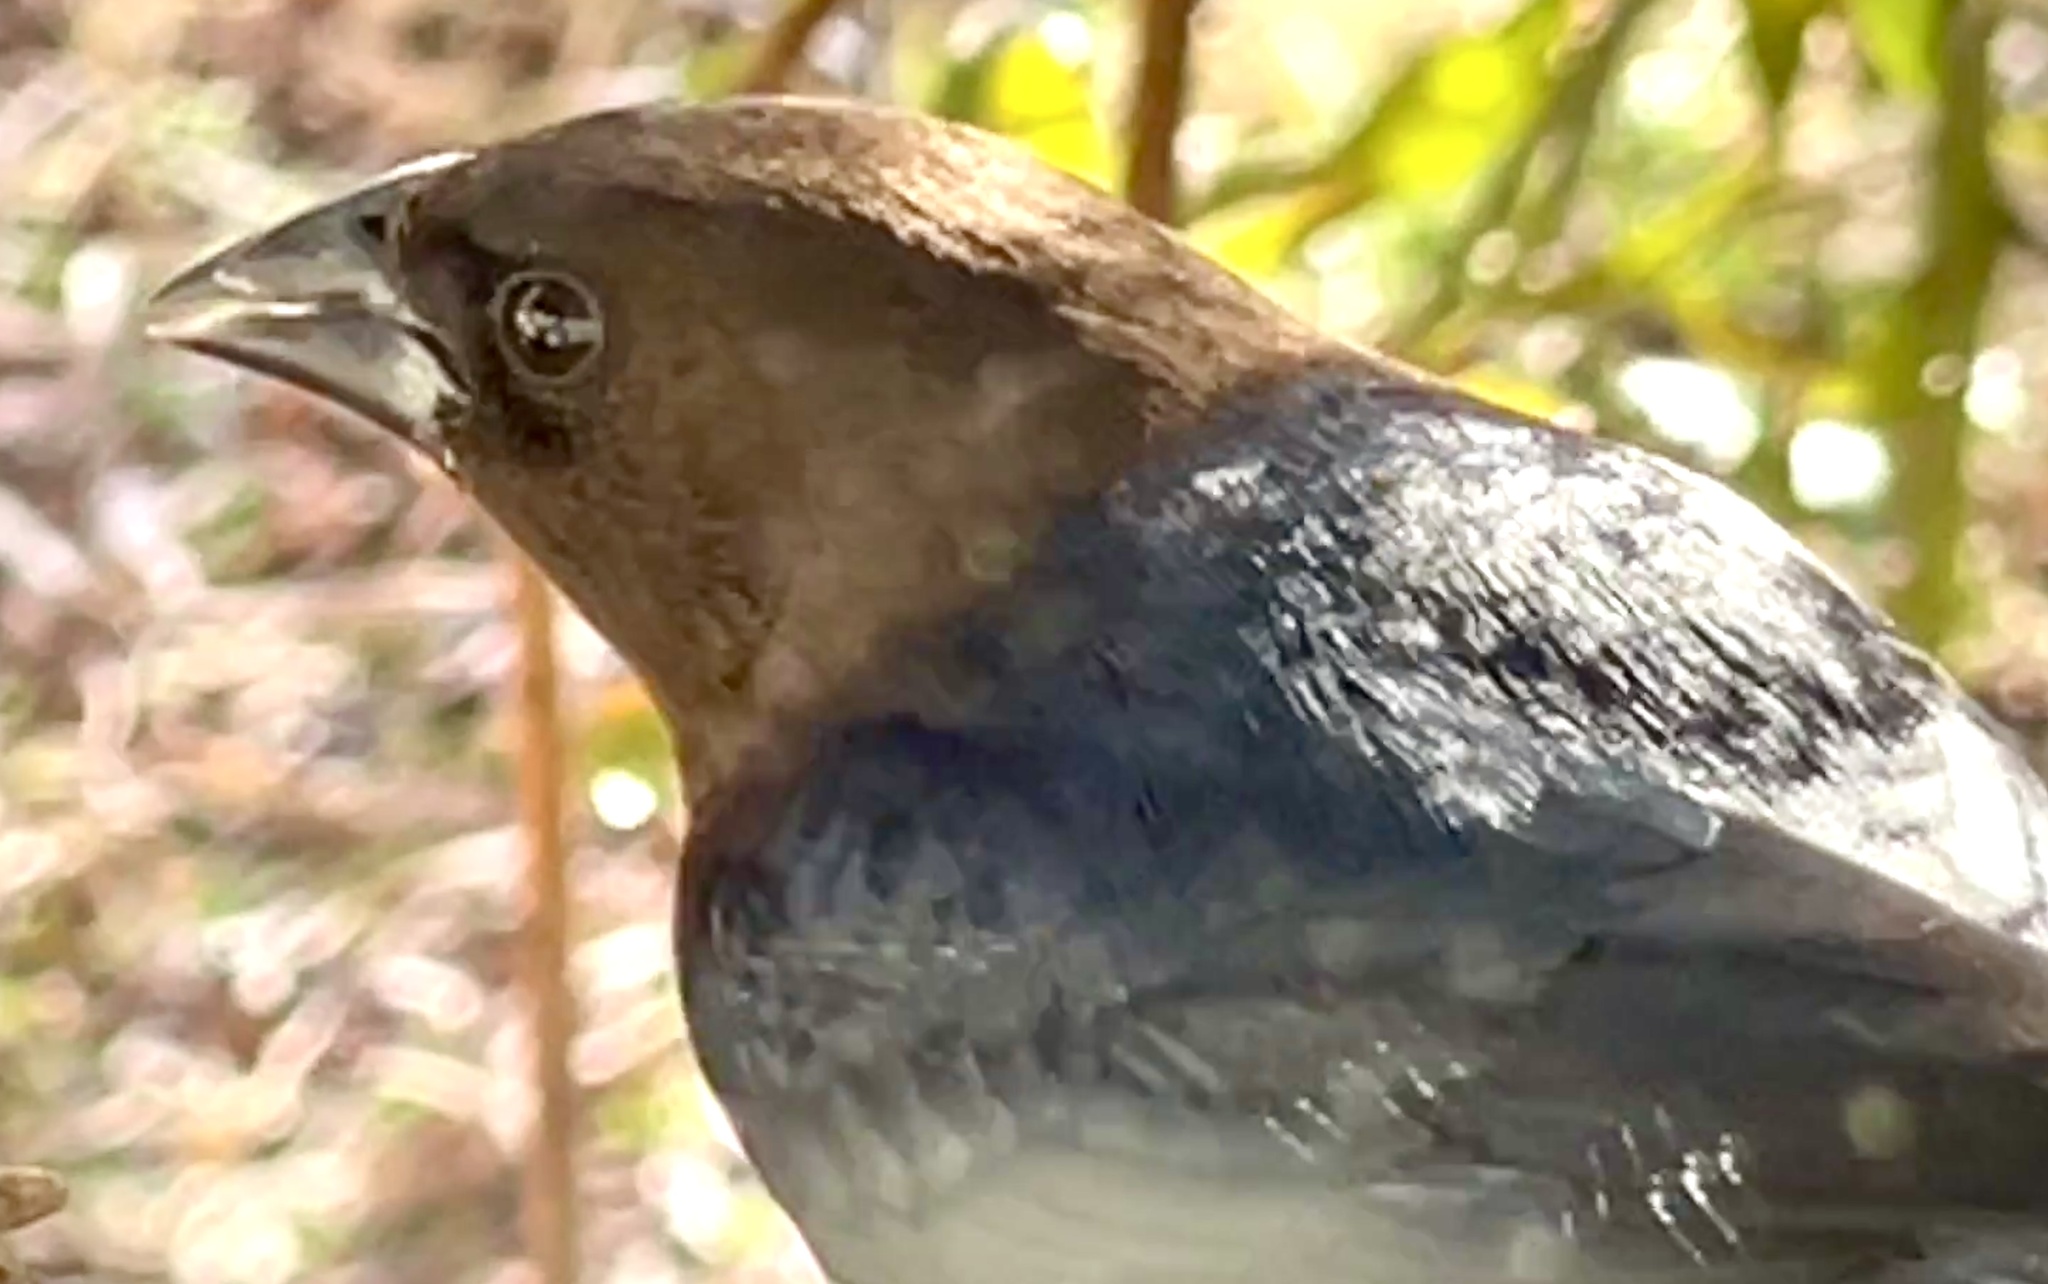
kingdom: Animalia
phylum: Chordata
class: Aves
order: Passeriformes
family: Icteridae
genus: Molothrus
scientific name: Molothrus ater
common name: Brown-headed cowbird
